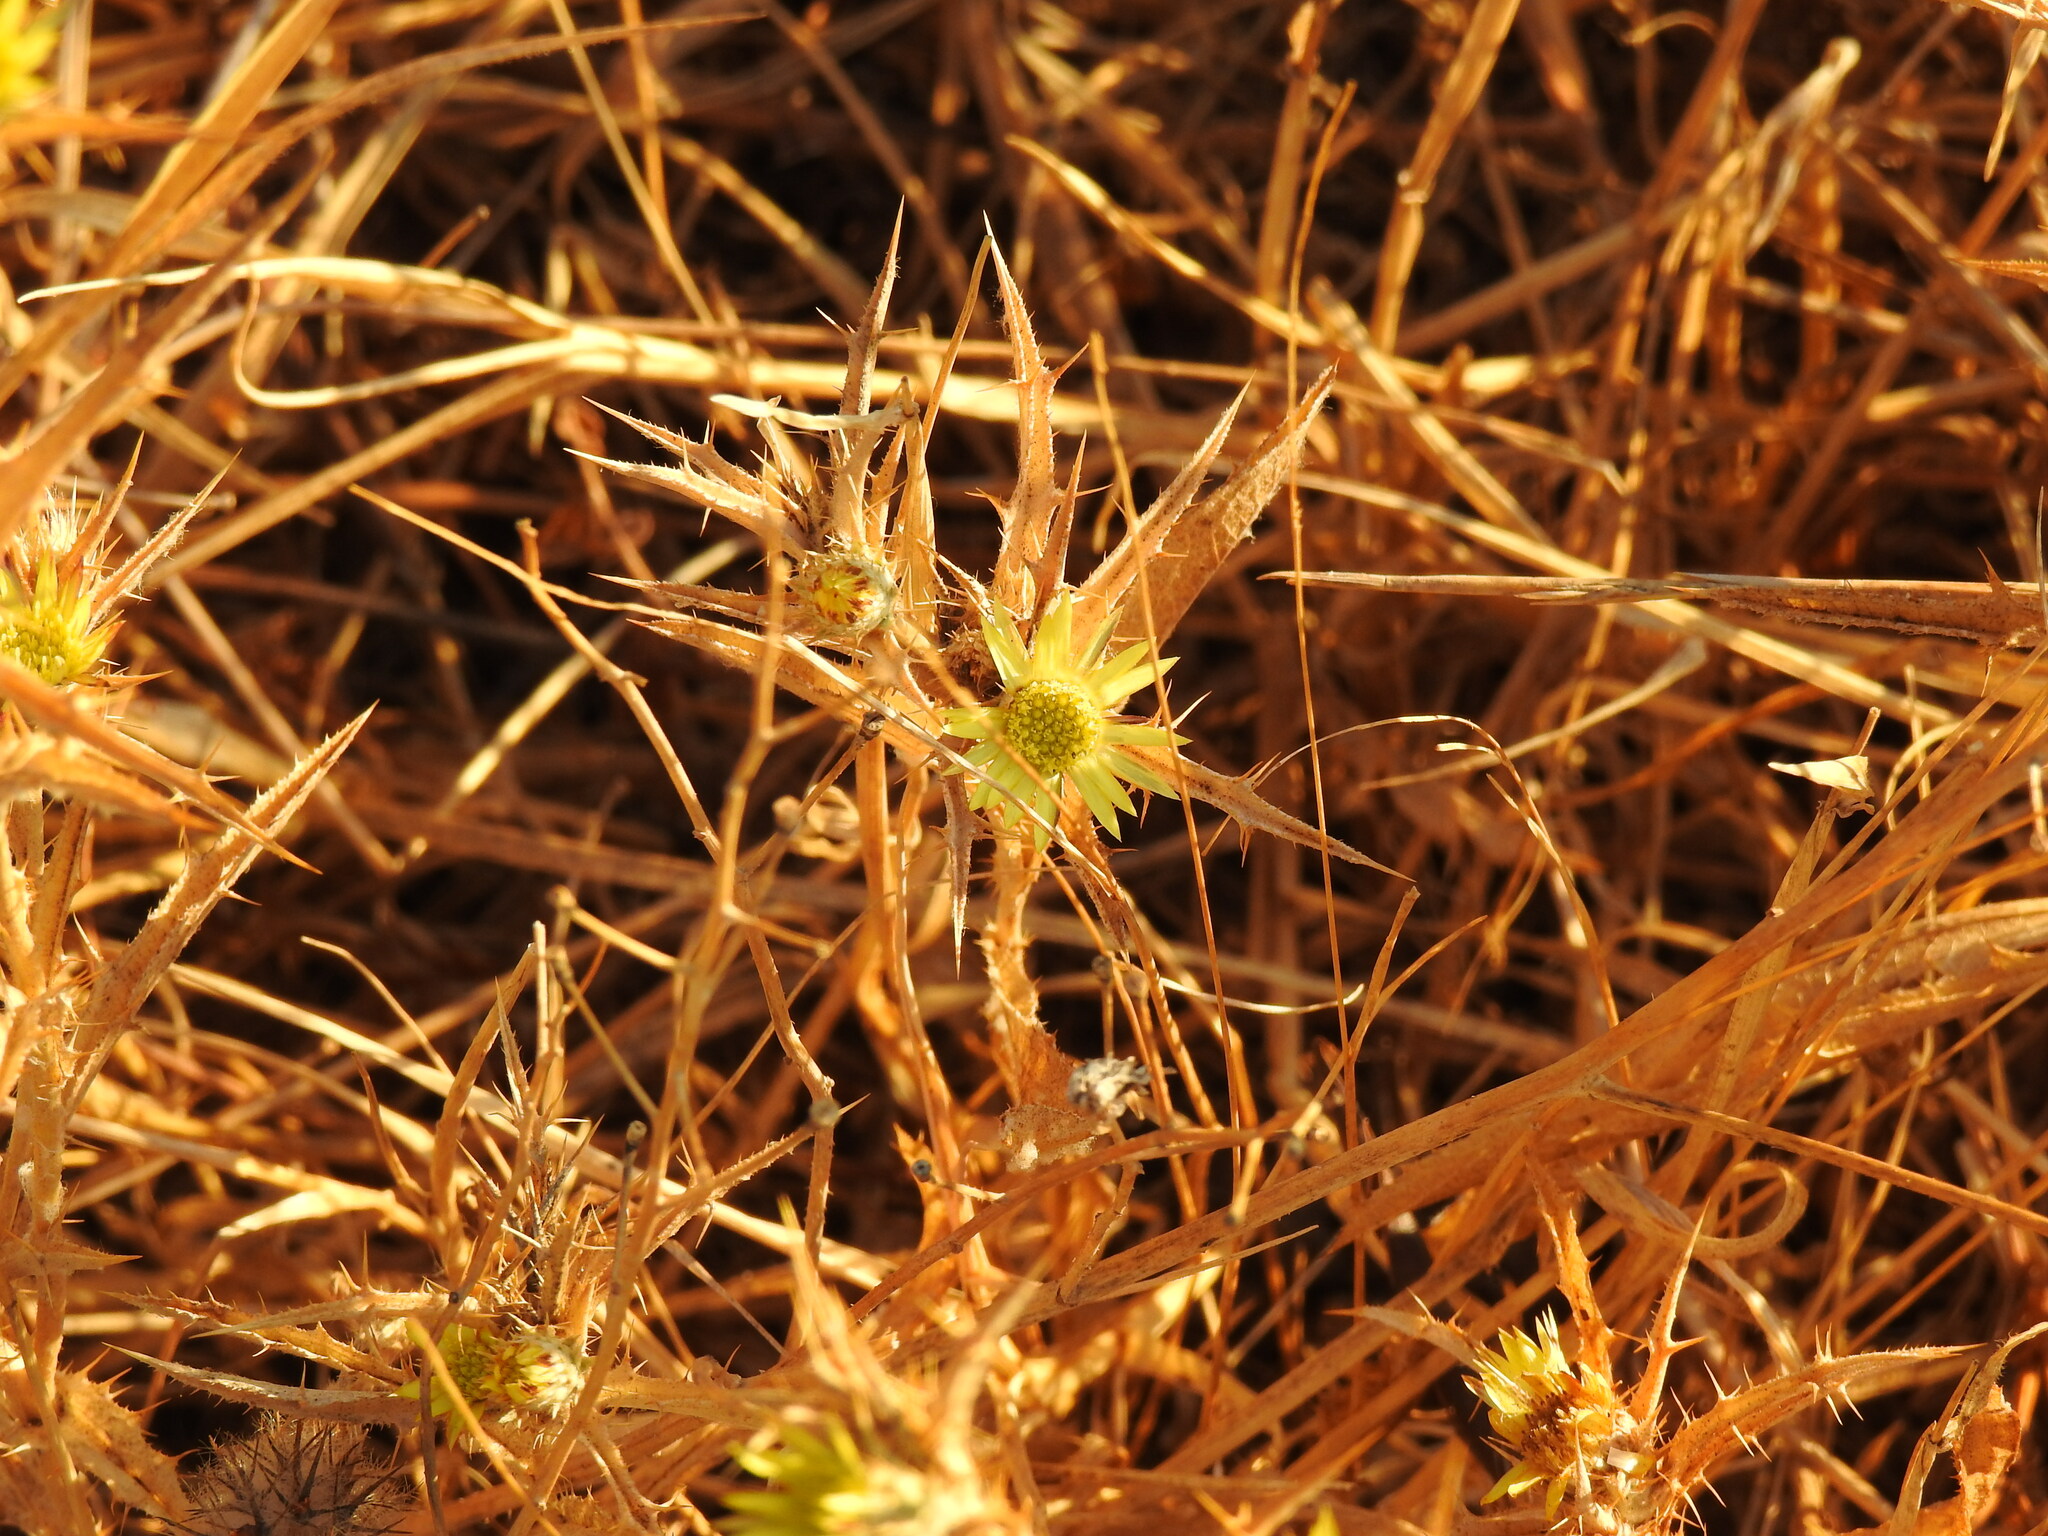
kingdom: Plantae
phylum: Tracheophyta
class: Magnoliopsida
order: Asterales
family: Asteraceae
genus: Carlina
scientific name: Carlina racemosa
